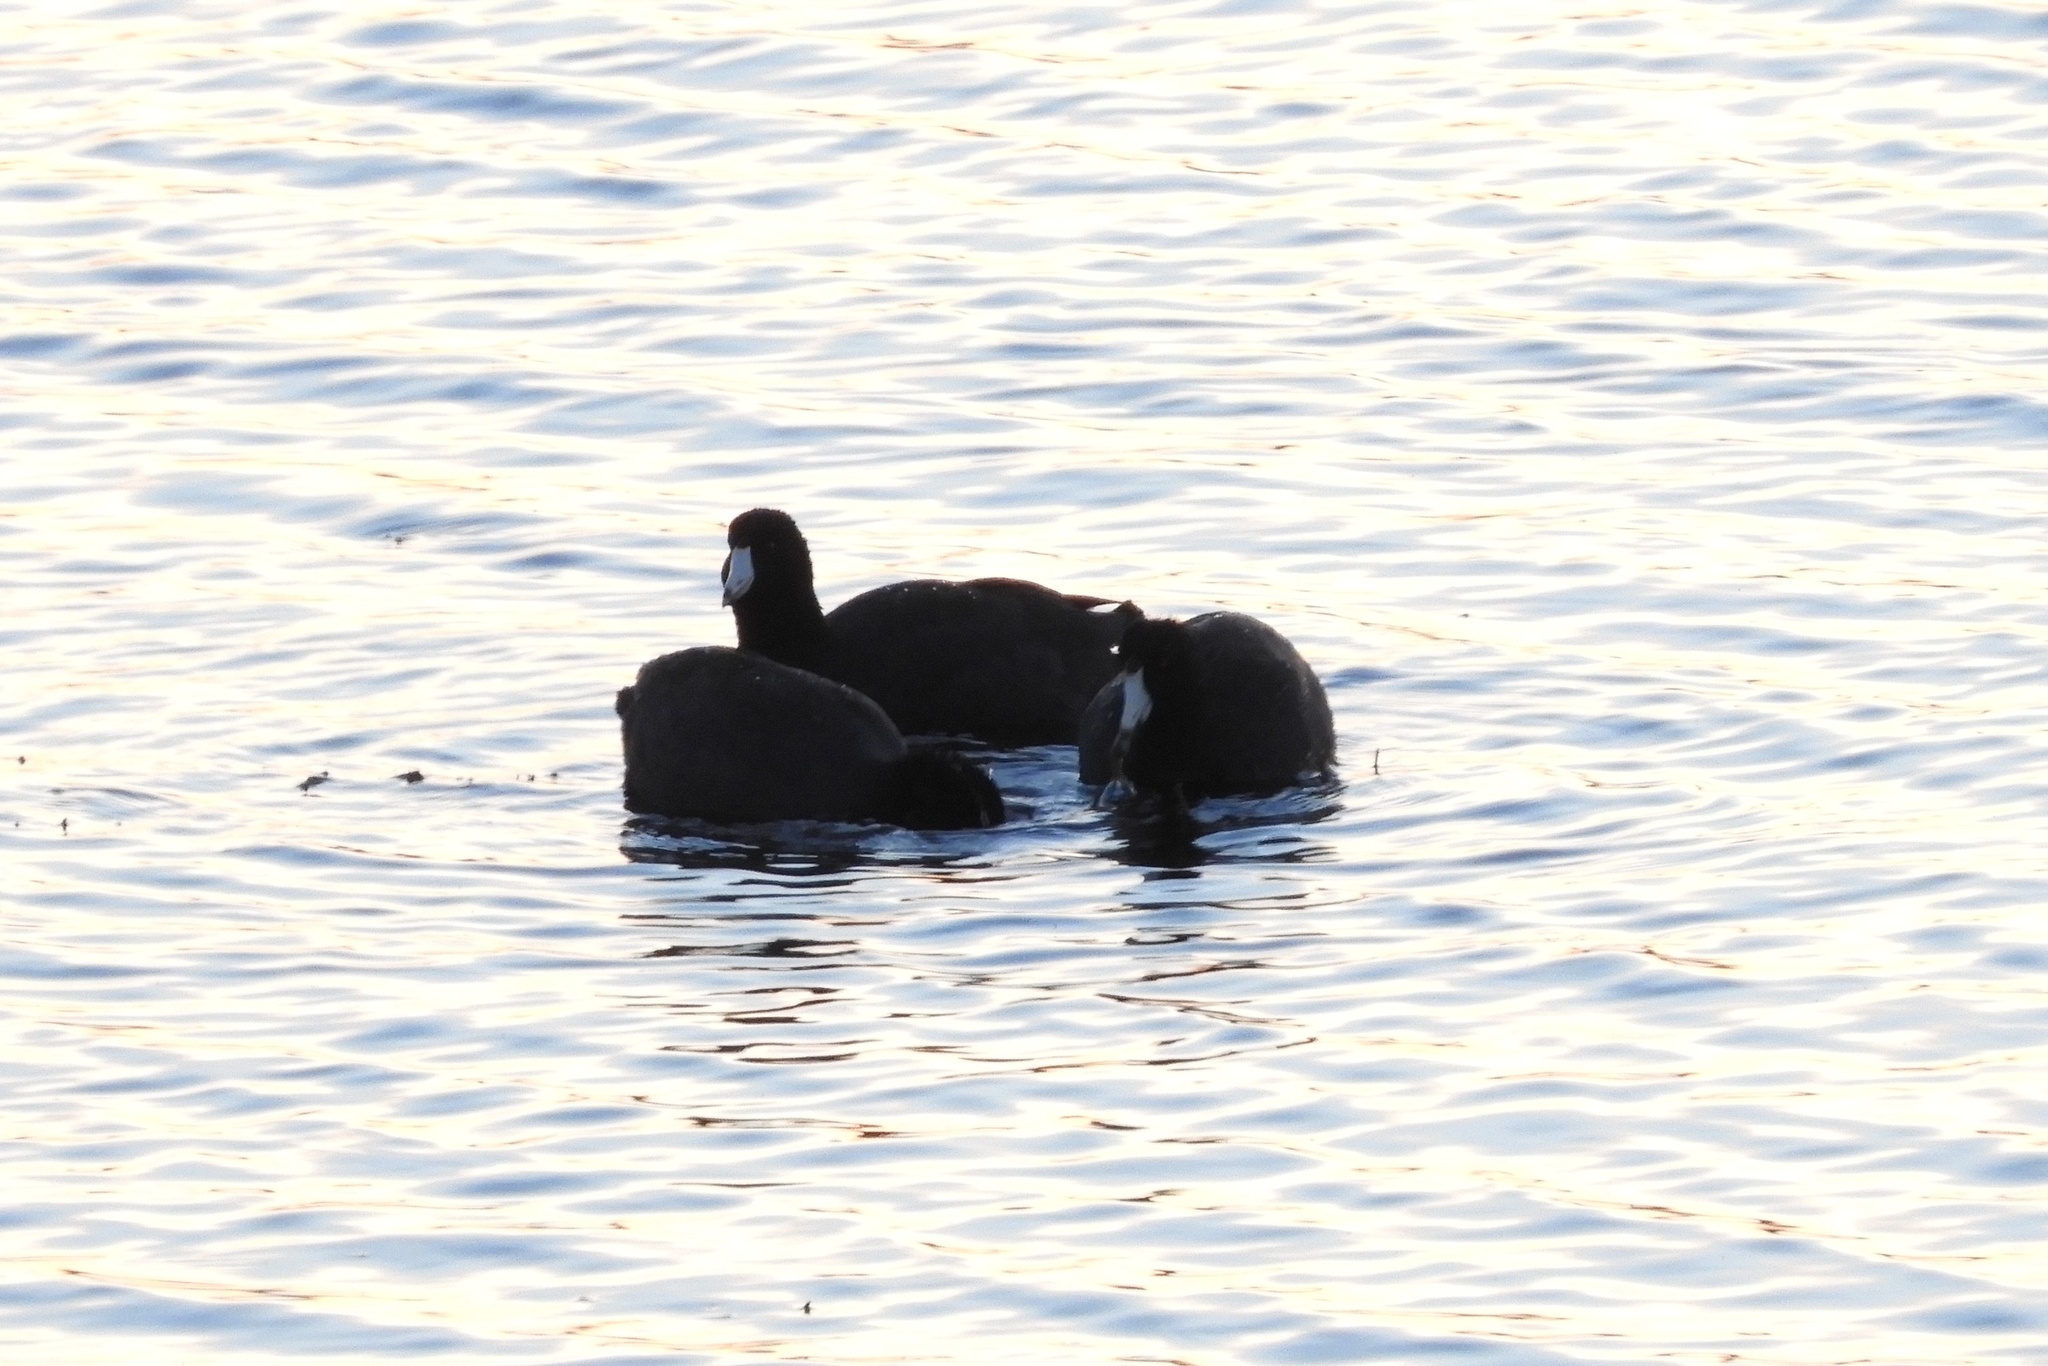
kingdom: Animalia
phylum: Chordata
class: Aves
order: Gruiformes
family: Rallidae
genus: Fulica
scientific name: Fulica americana
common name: American coot
